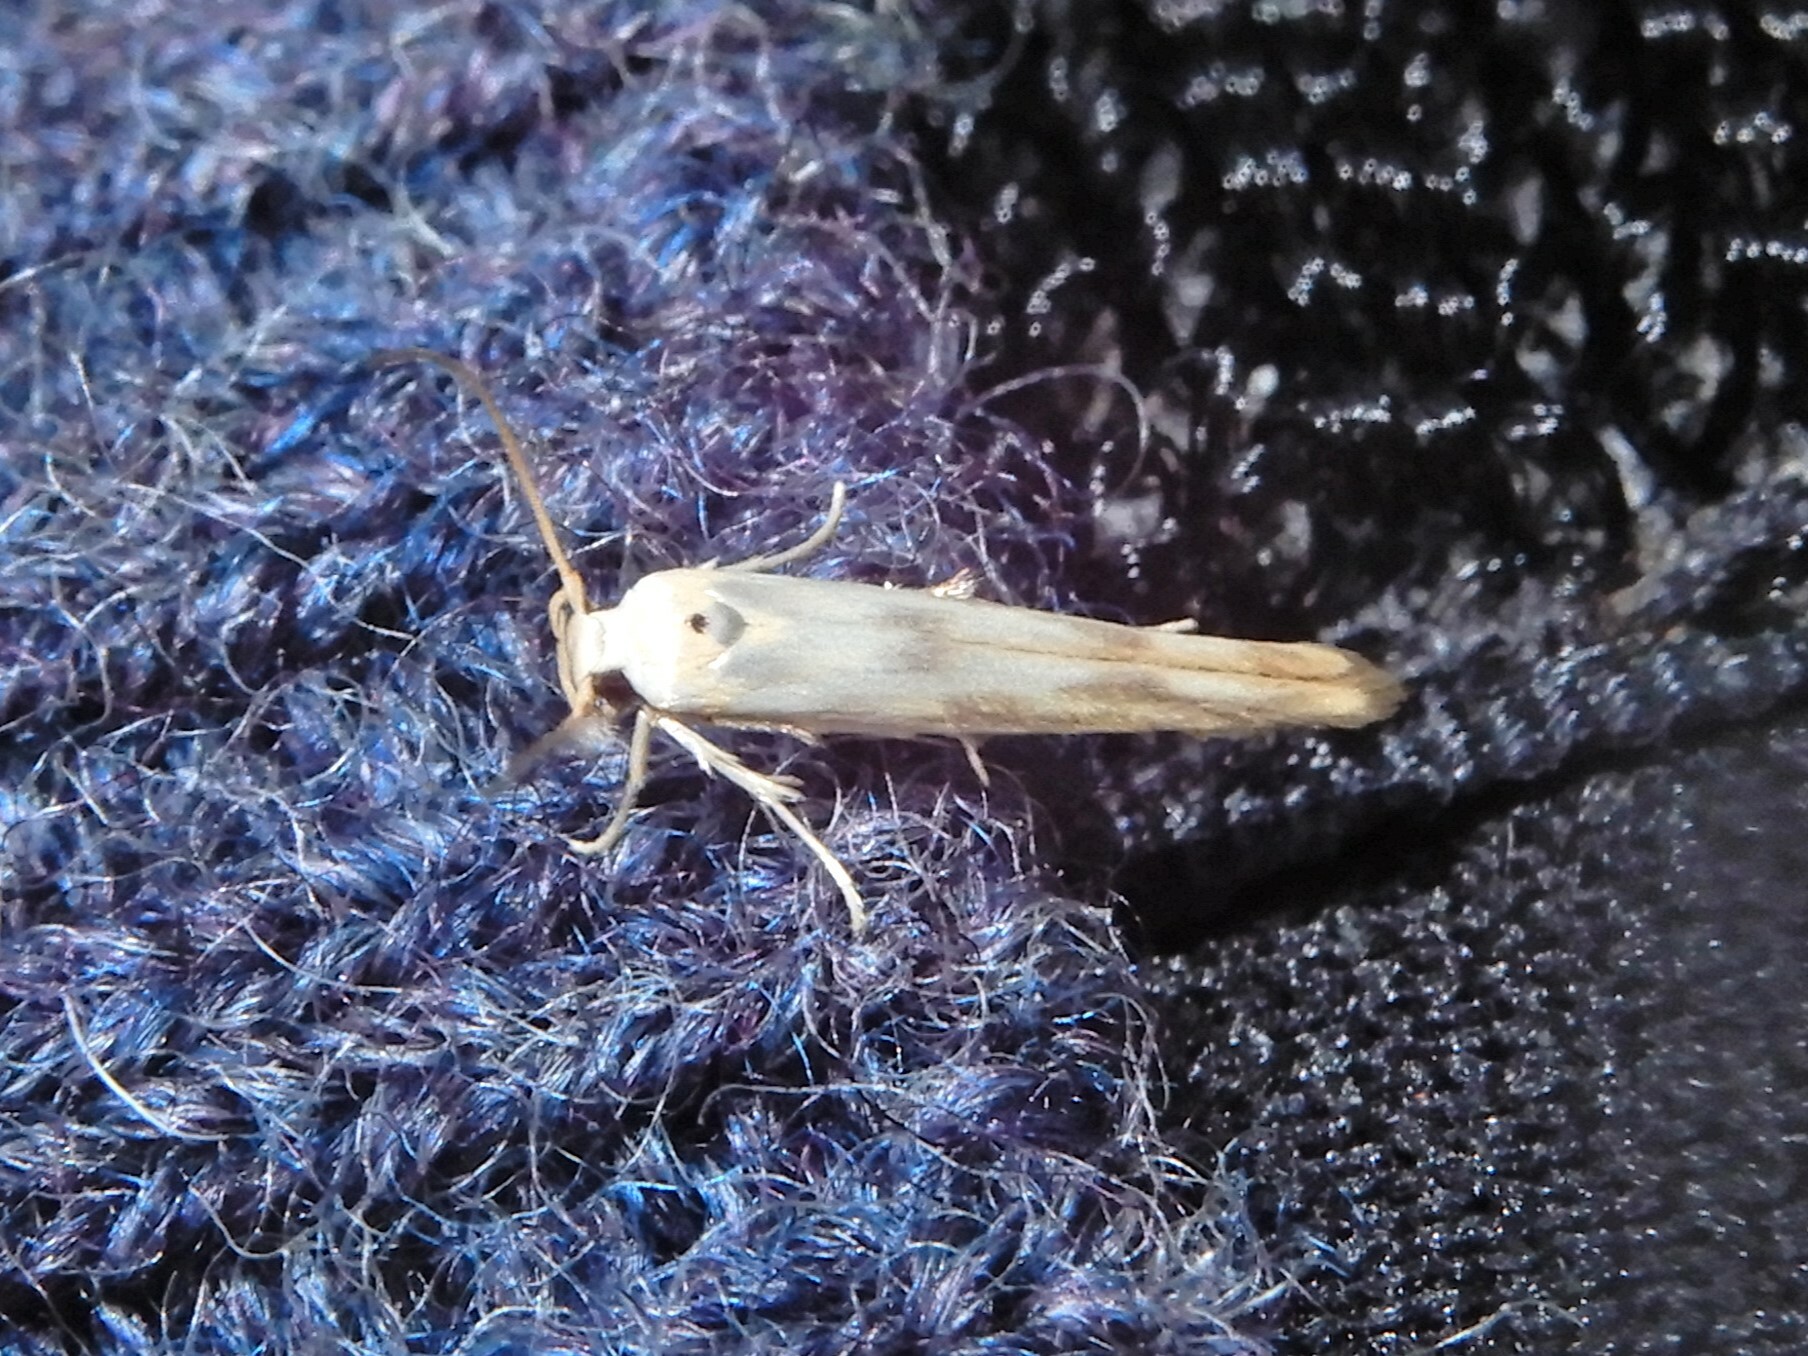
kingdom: Animalia
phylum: Arthropoda
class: Insecta
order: Lepidoptera
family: Stathmopodidae
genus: Stathmopoda
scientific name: Stathmopoda horticola
